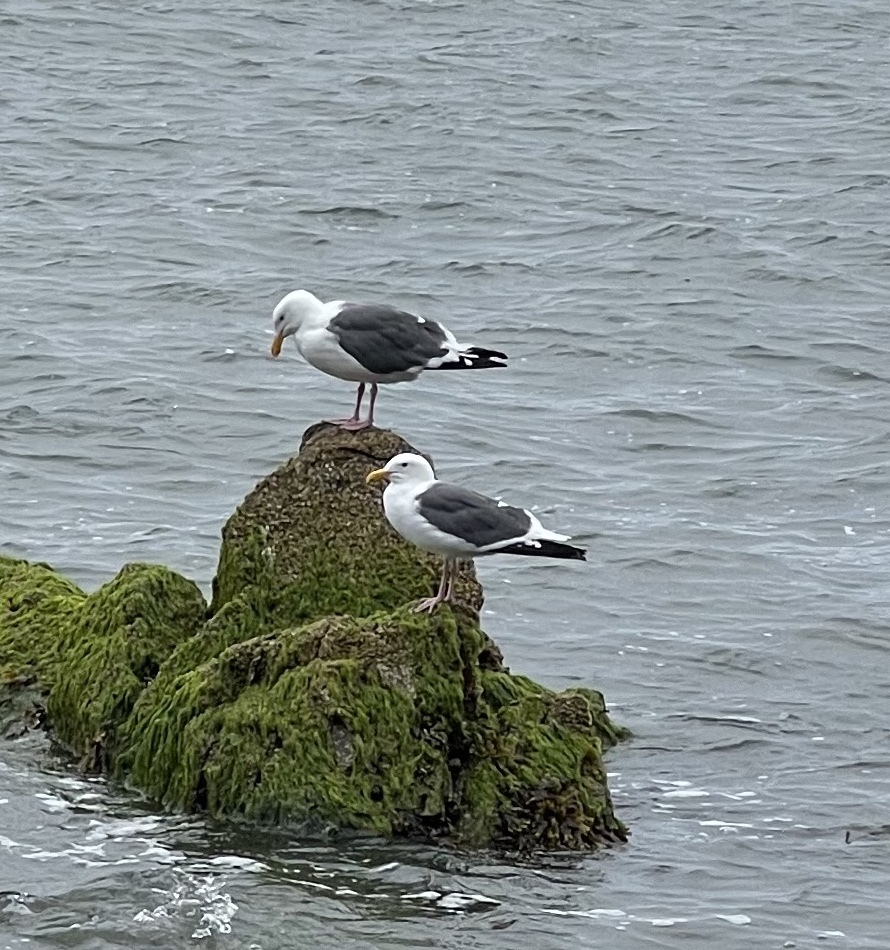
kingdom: Animalia
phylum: Chordata
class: Aves
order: Charadriiformes
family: Laridae
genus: Larus
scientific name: Larus occidentalis
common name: Western gull
